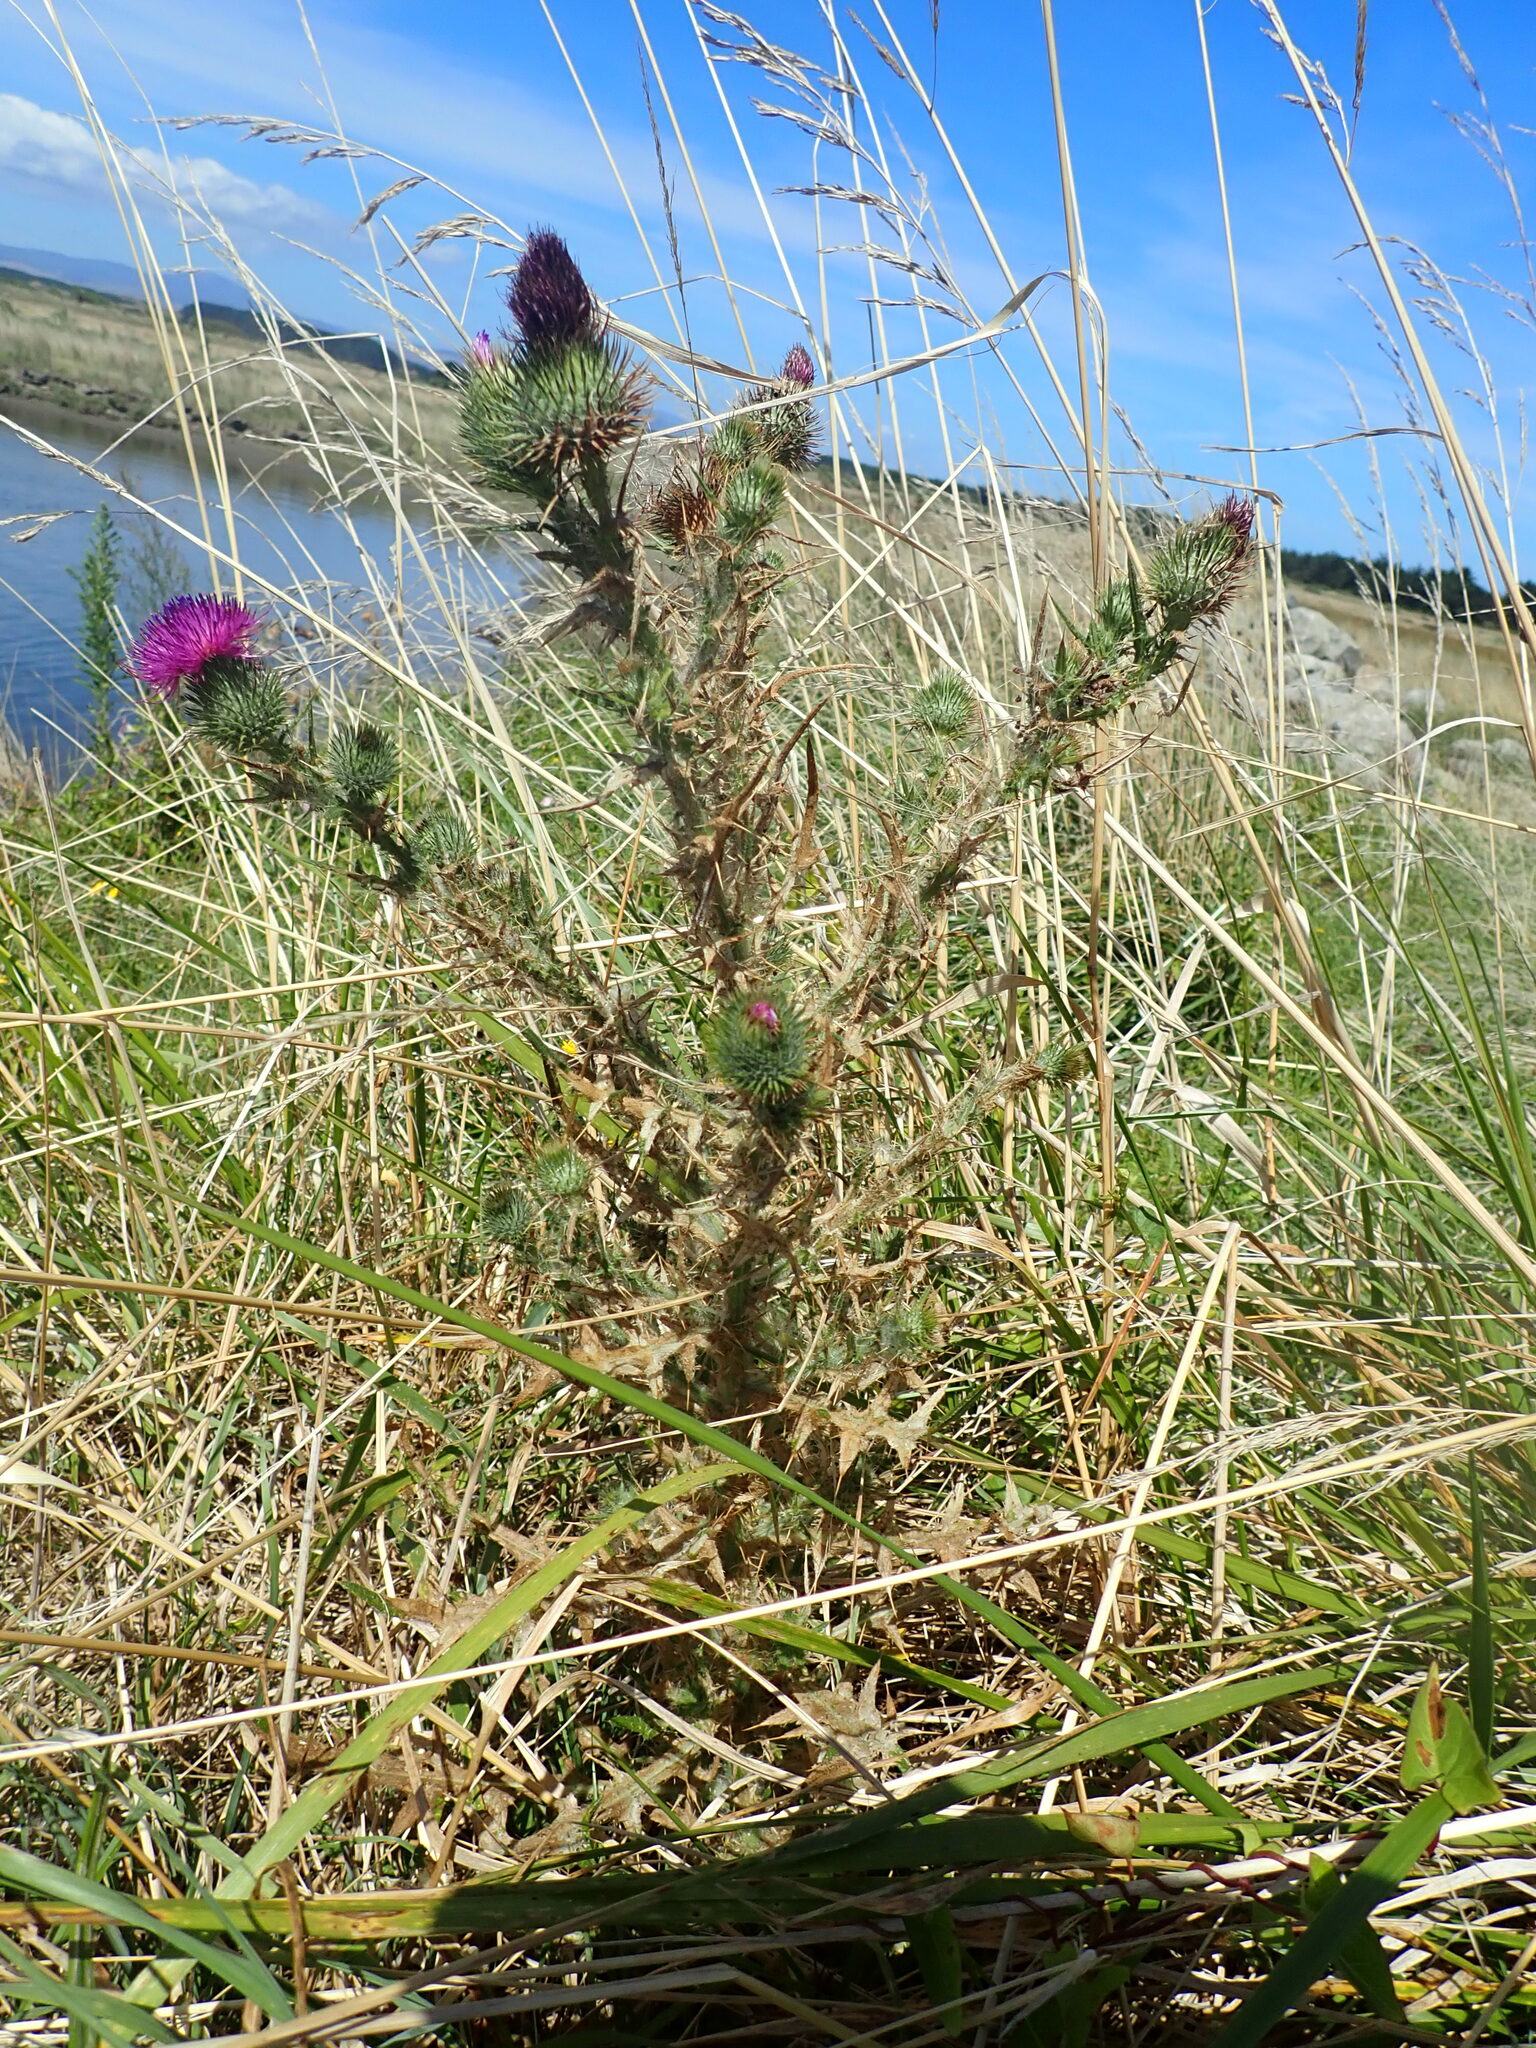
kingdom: Plantae
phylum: Tracheophyta
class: Magnoliopsida
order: Asterales
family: Asteraceae
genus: Cirsium
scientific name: Cirsium vulgare
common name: Bull thistle
